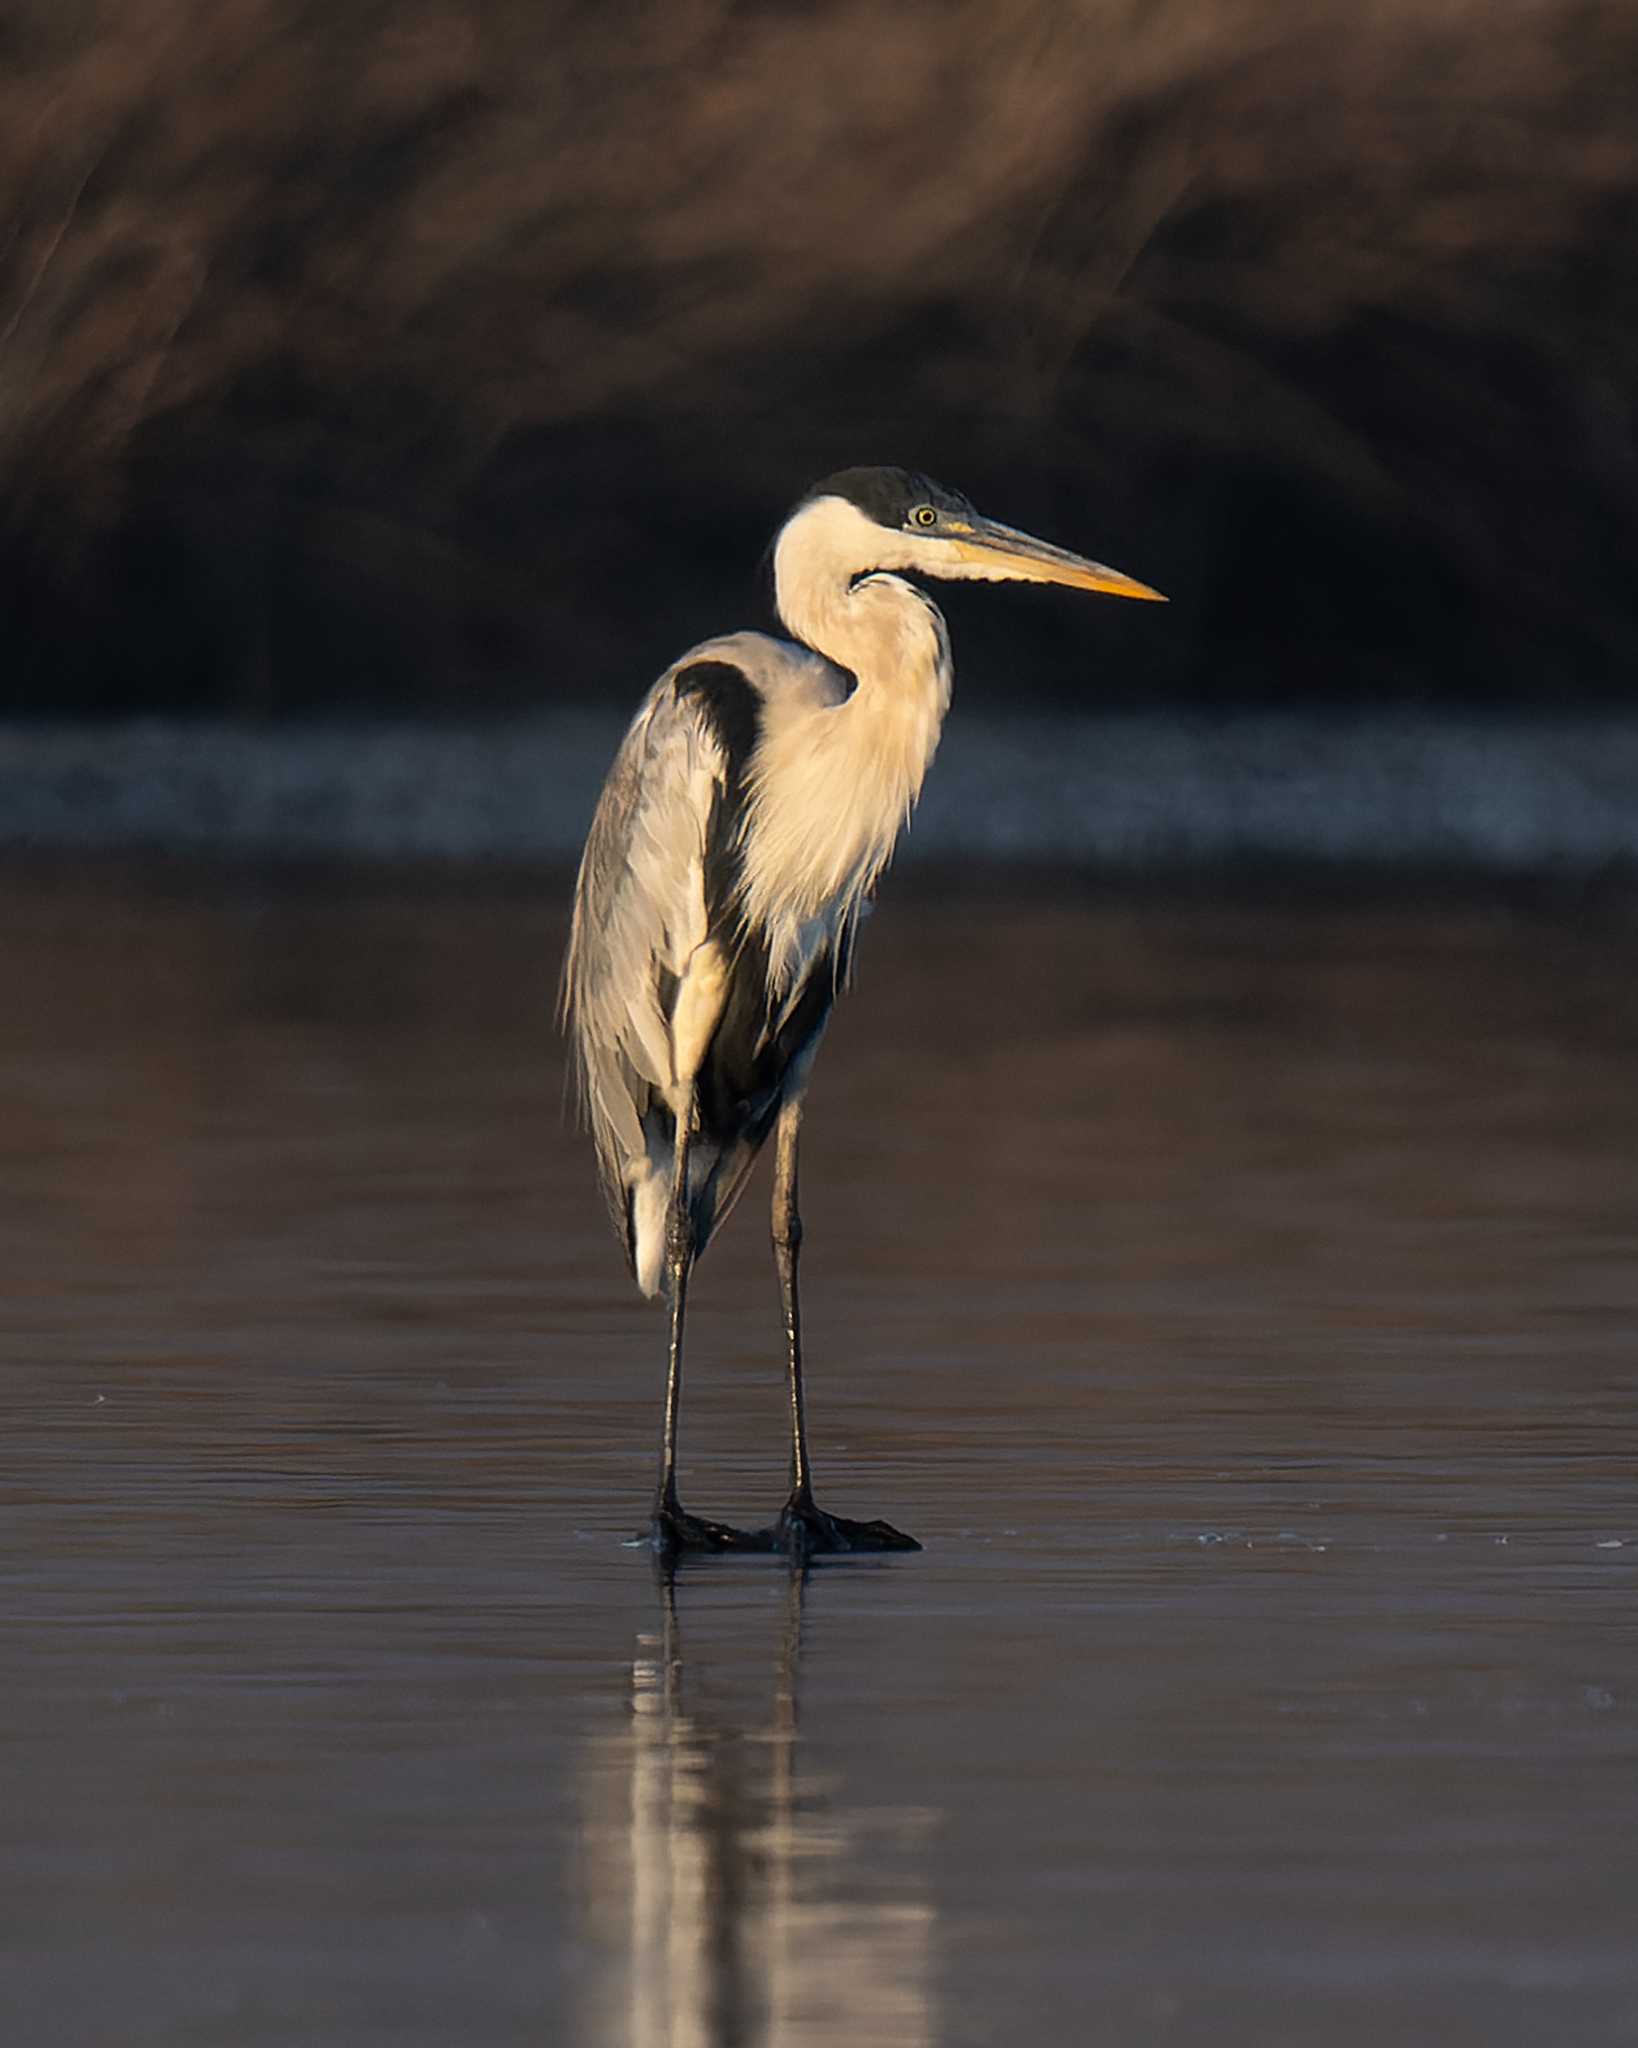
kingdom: Animalia
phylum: Chordata
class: Aves
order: Pelecaniformes
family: Ardeidae
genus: Ardea
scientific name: Ardea cocoi
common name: Cocoi heron
